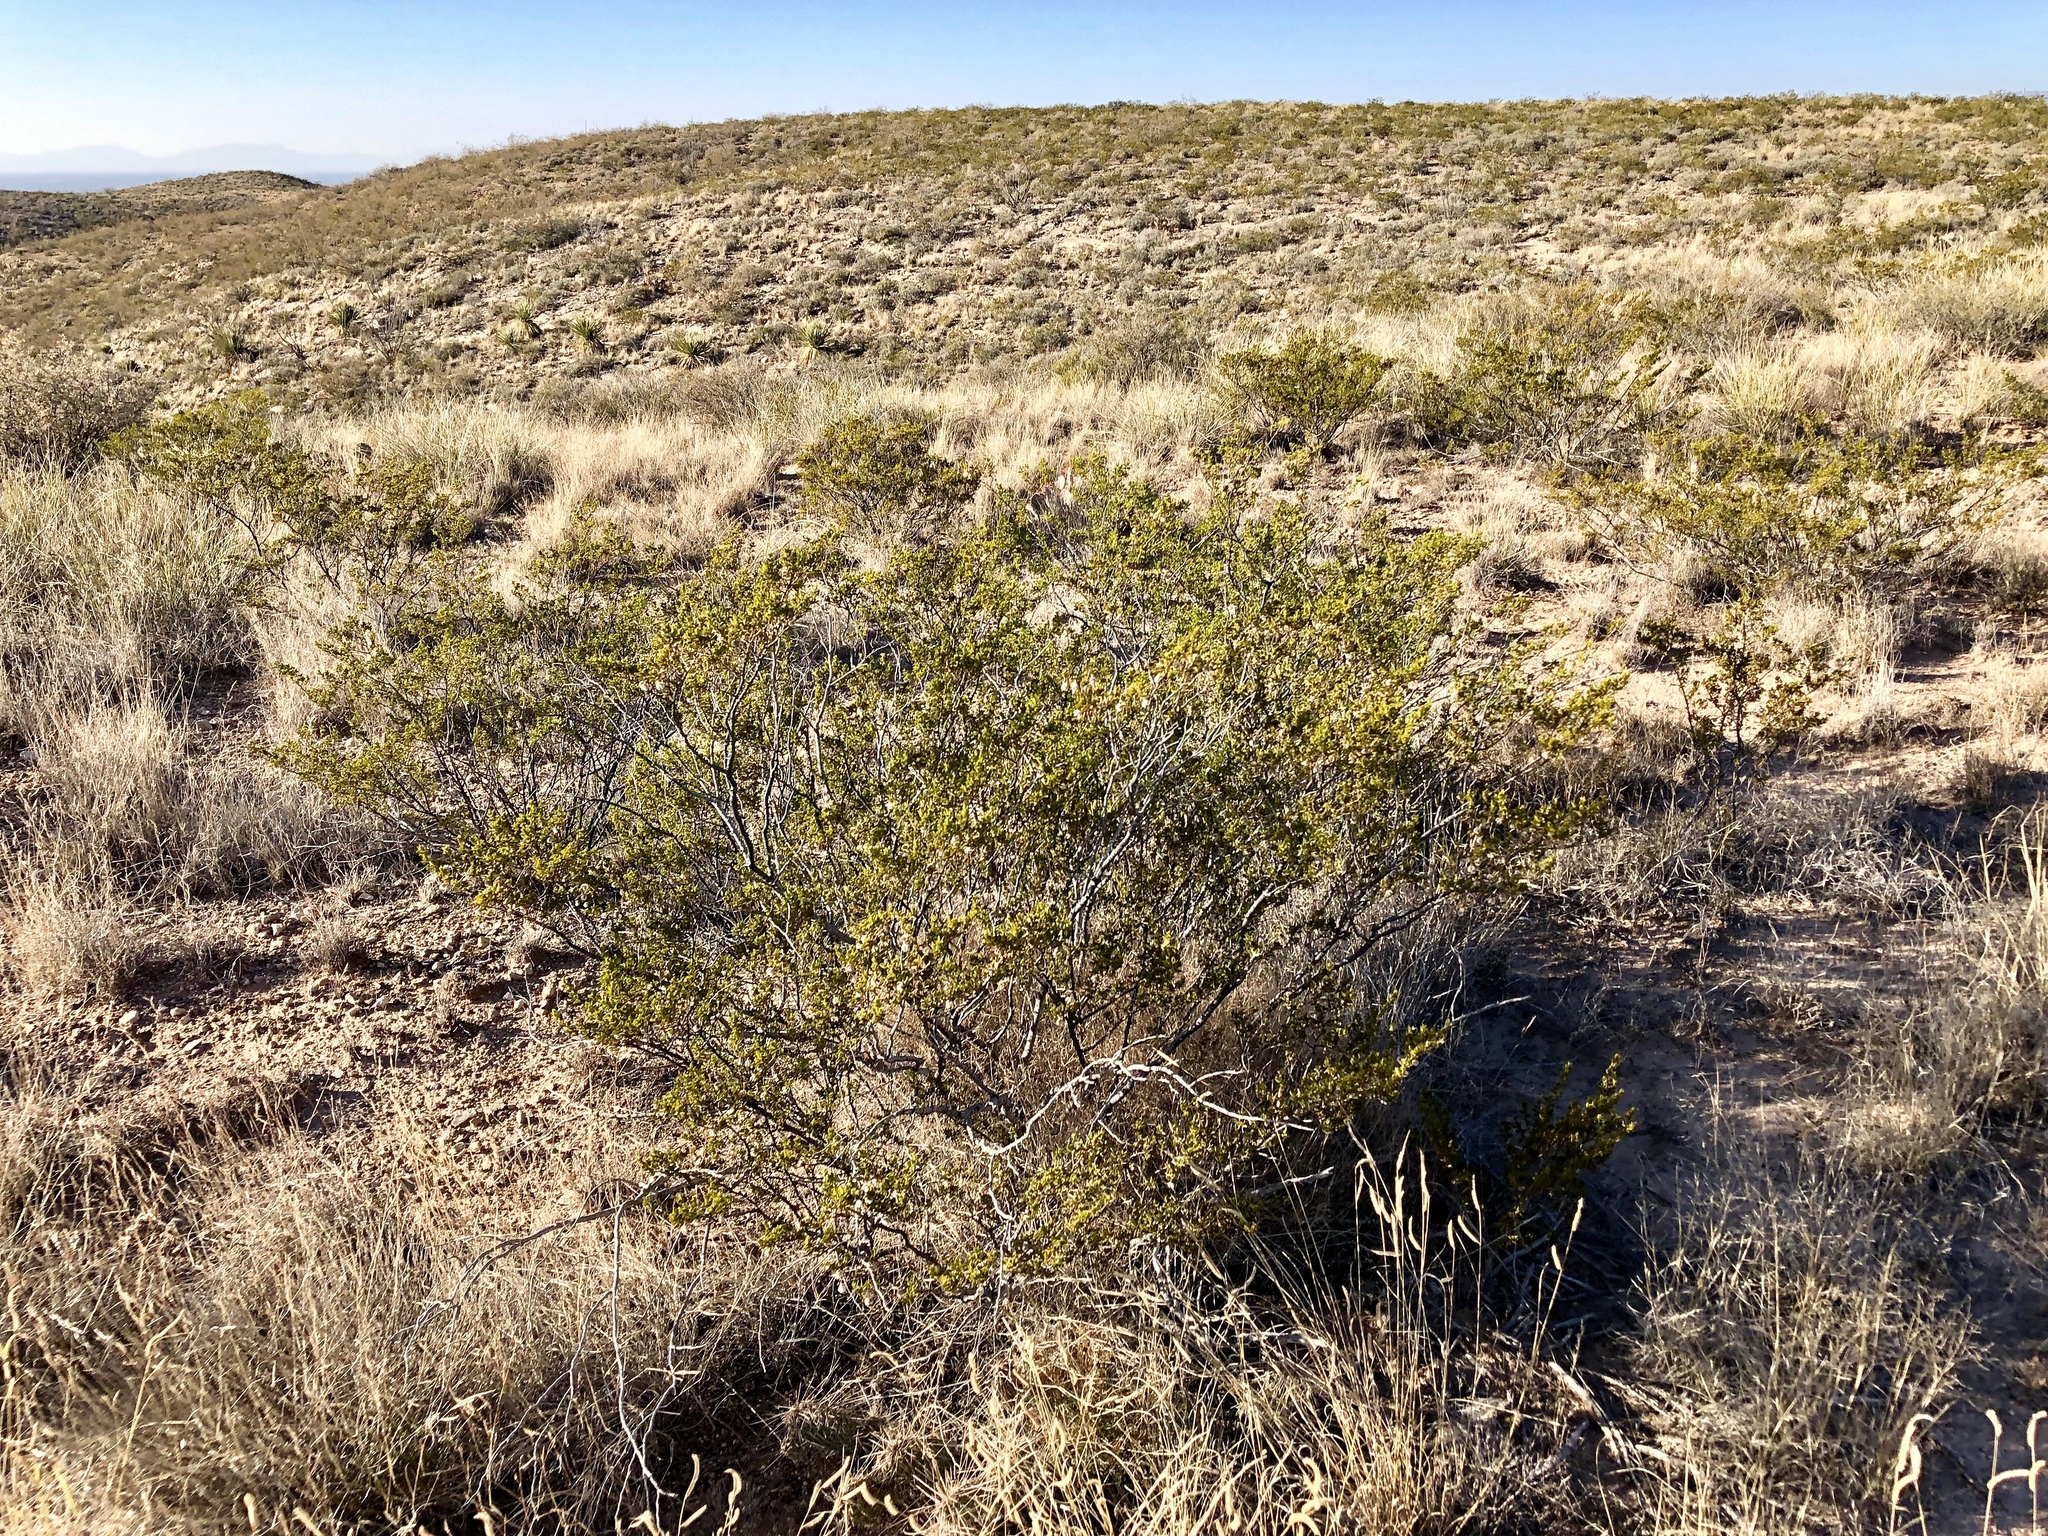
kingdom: Plantae
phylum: Tracheophyta
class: Magnoliopsida
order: Zygophyllales
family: Zygophyllaceae
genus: Larrea
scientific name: Larrea tridentata
